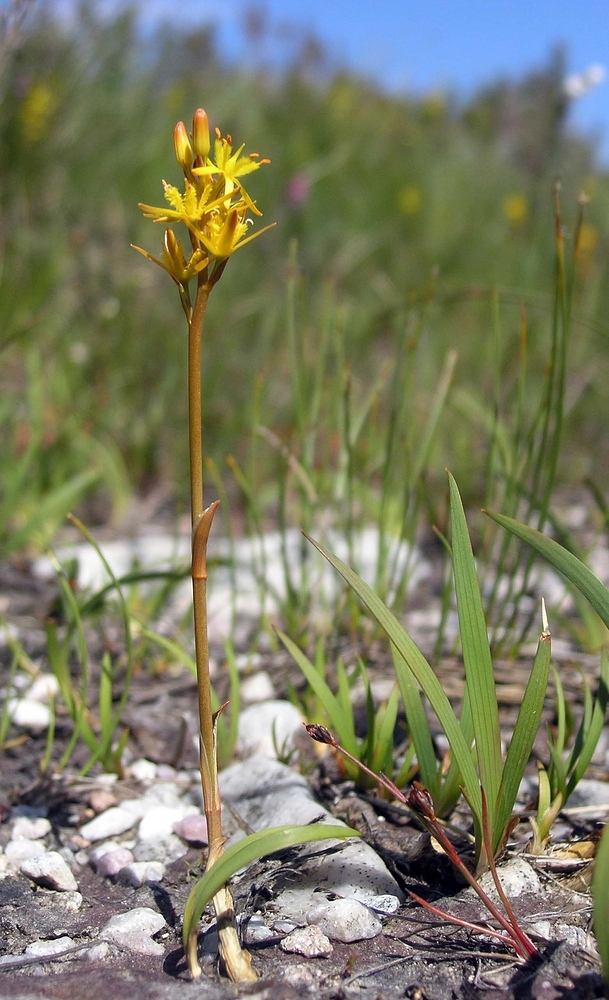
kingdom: Plantae
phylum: Tracheophyta
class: Liliopsida
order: Dioscoreales
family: Nartheciaceae
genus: Narthecium
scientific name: Narthecium ossifragum
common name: Bog asphodel
